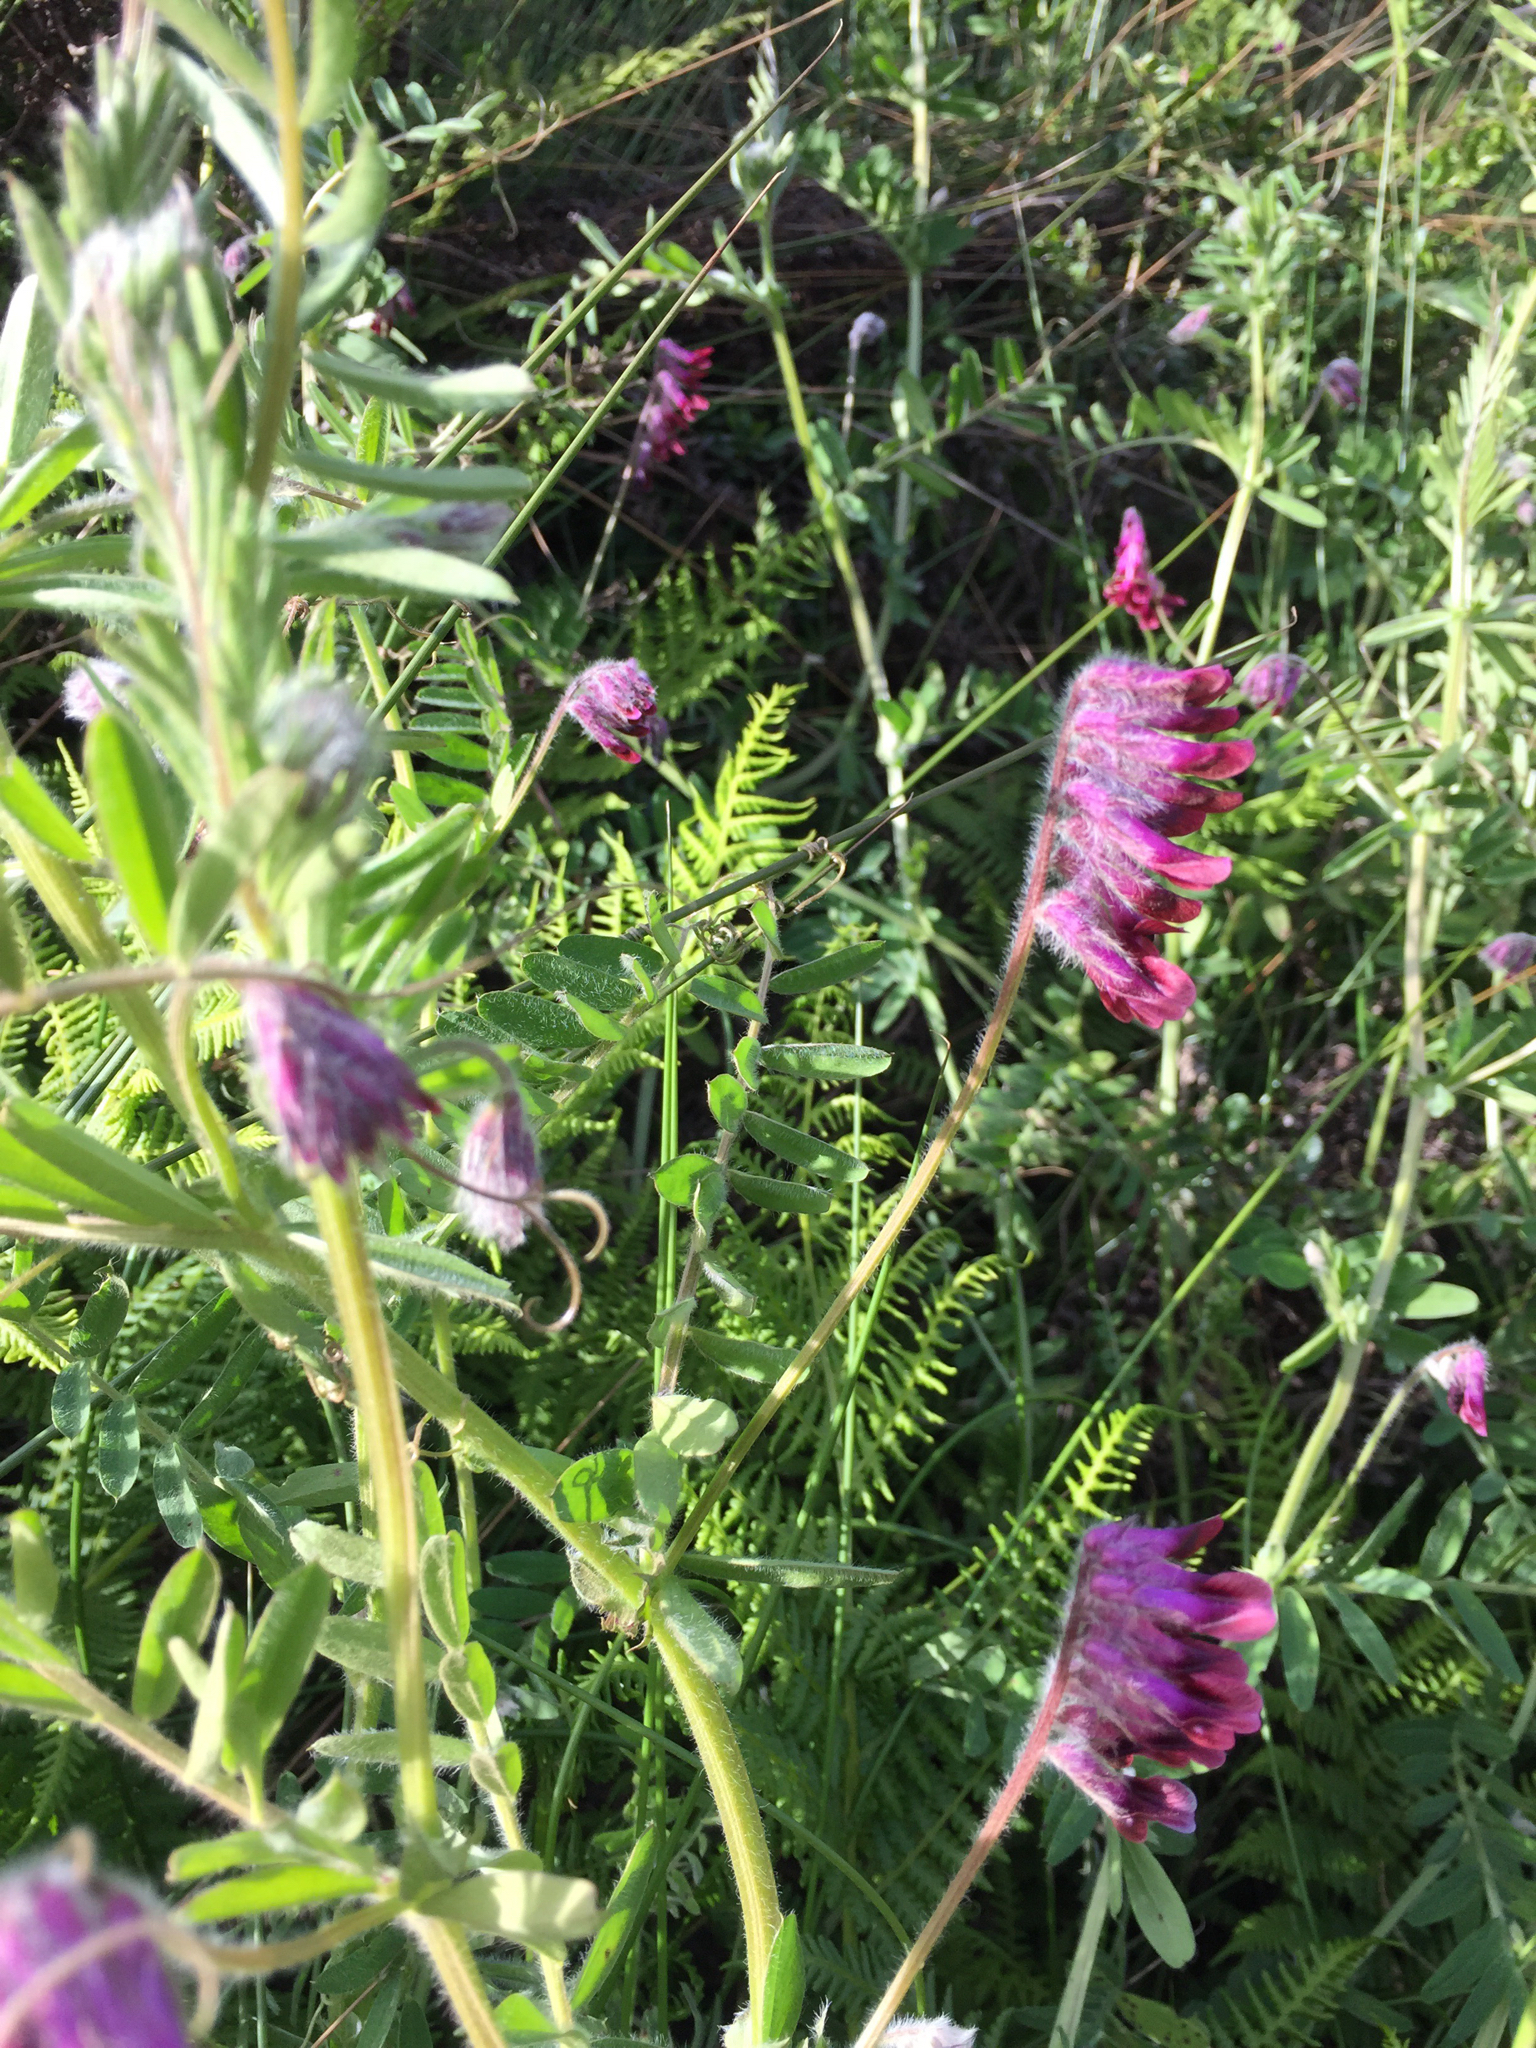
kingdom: Plantae
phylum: Tracheophyta
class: Magnoliopsida
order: Fabales
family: Fabaceae
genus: Vicia
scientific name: Vicia benghalensis
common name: Purple vetch
